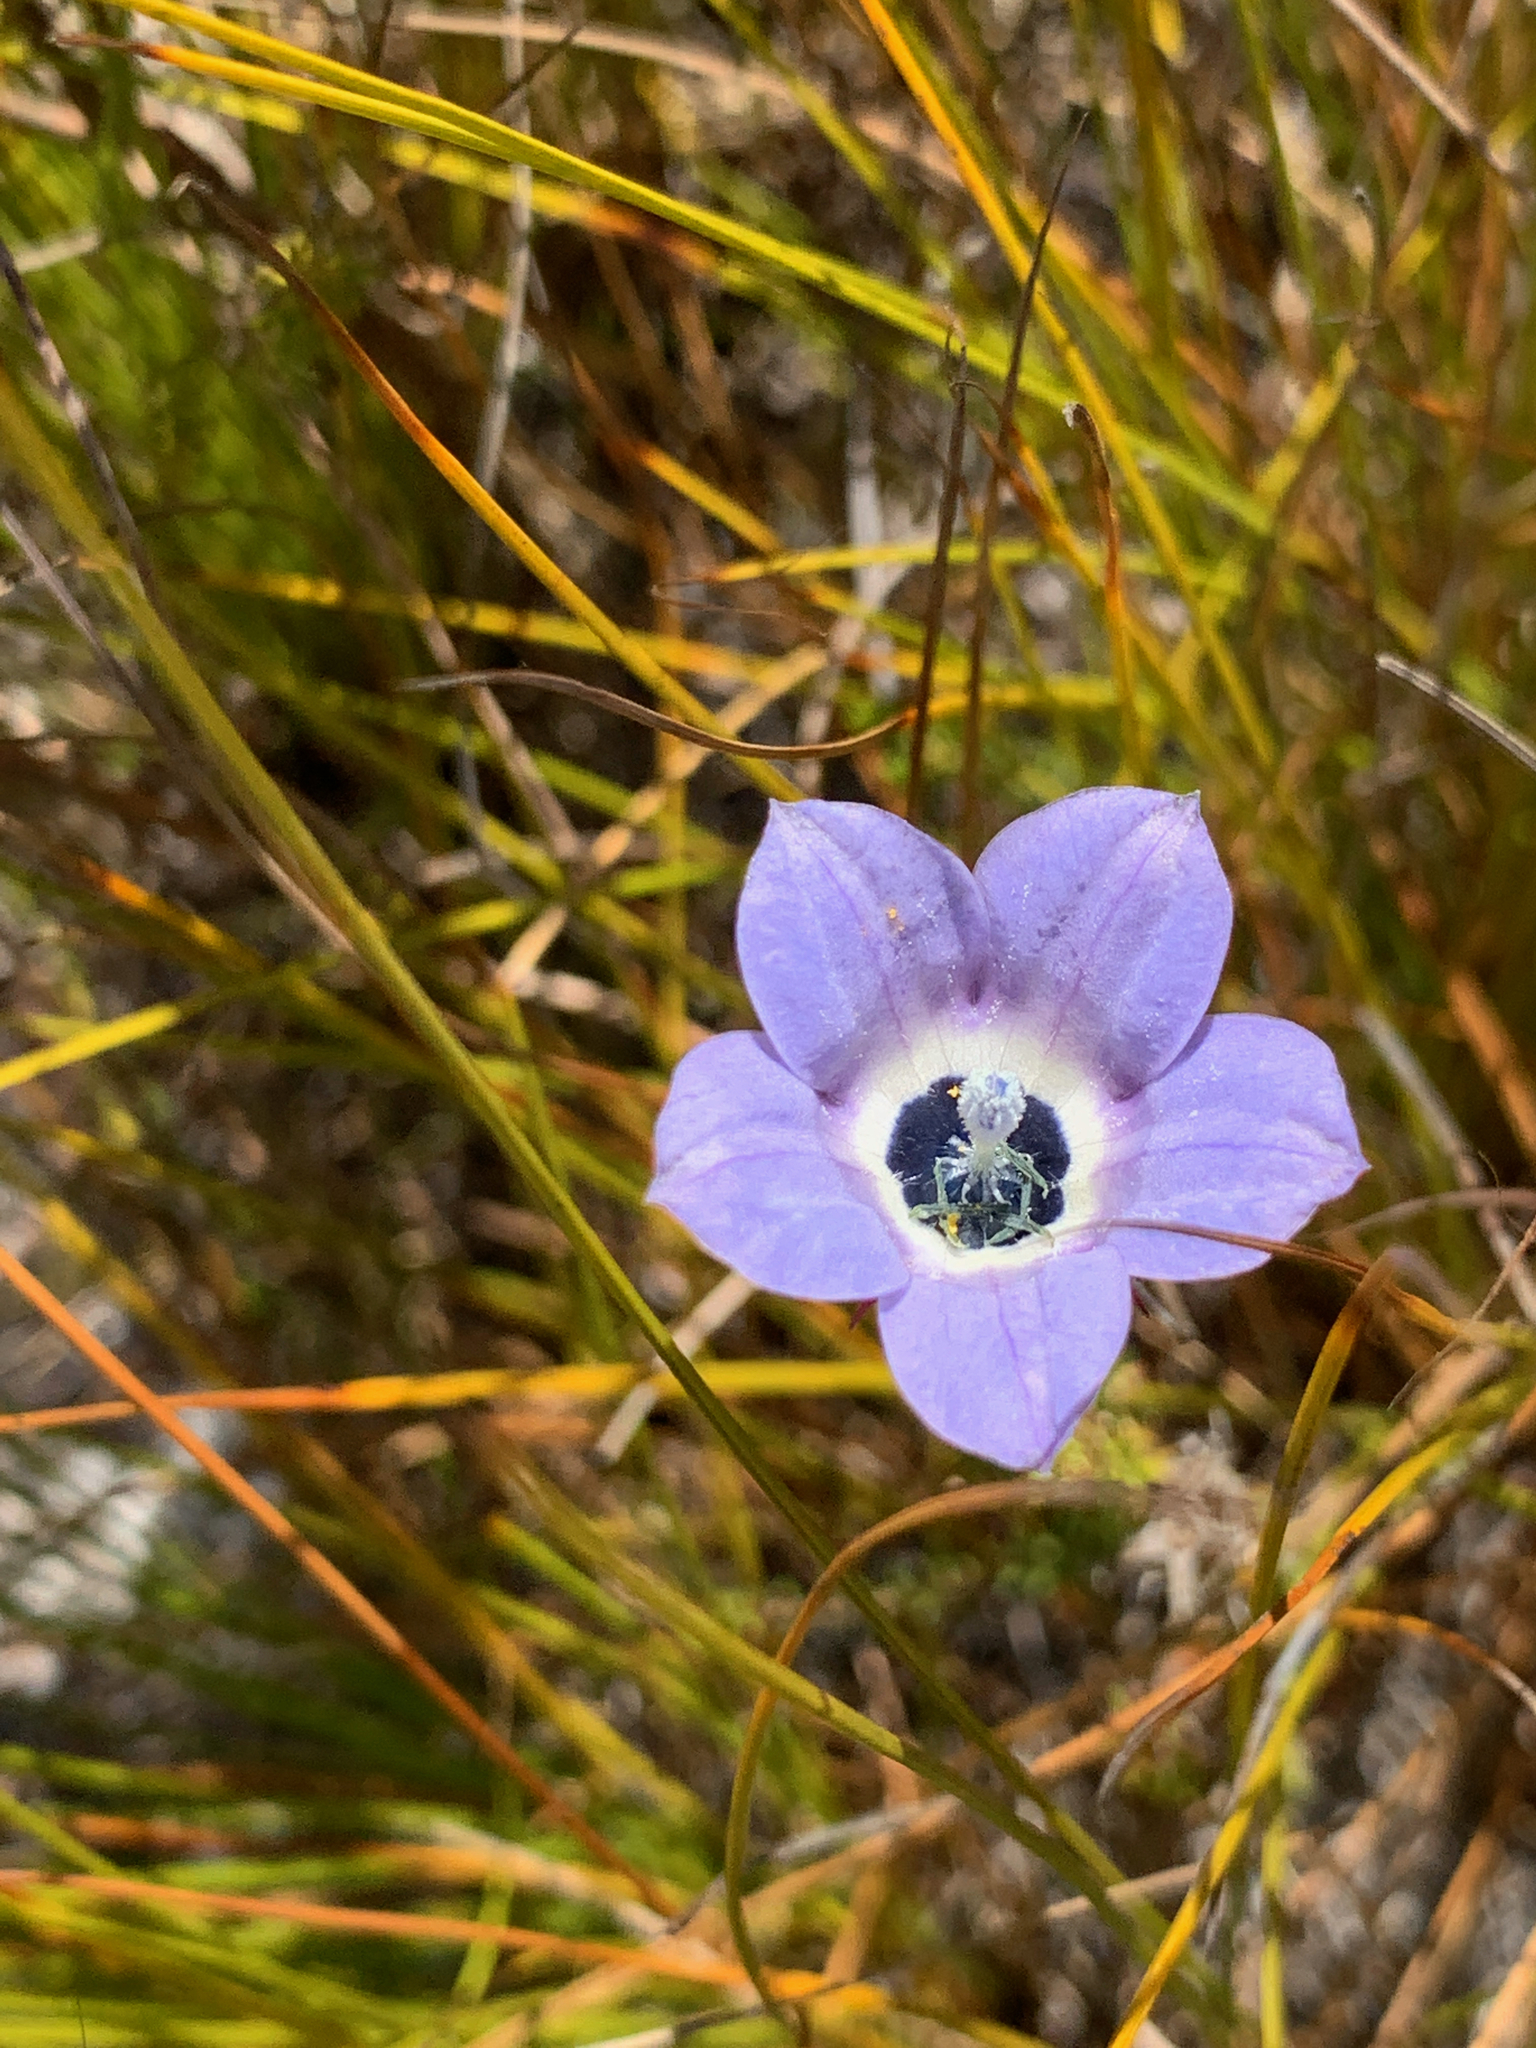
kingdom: Plantae
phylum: Tracheophyta
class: Magnoliopsida
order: Asterales
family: Campanulaceae
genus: Roella
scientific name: Roella triflora
